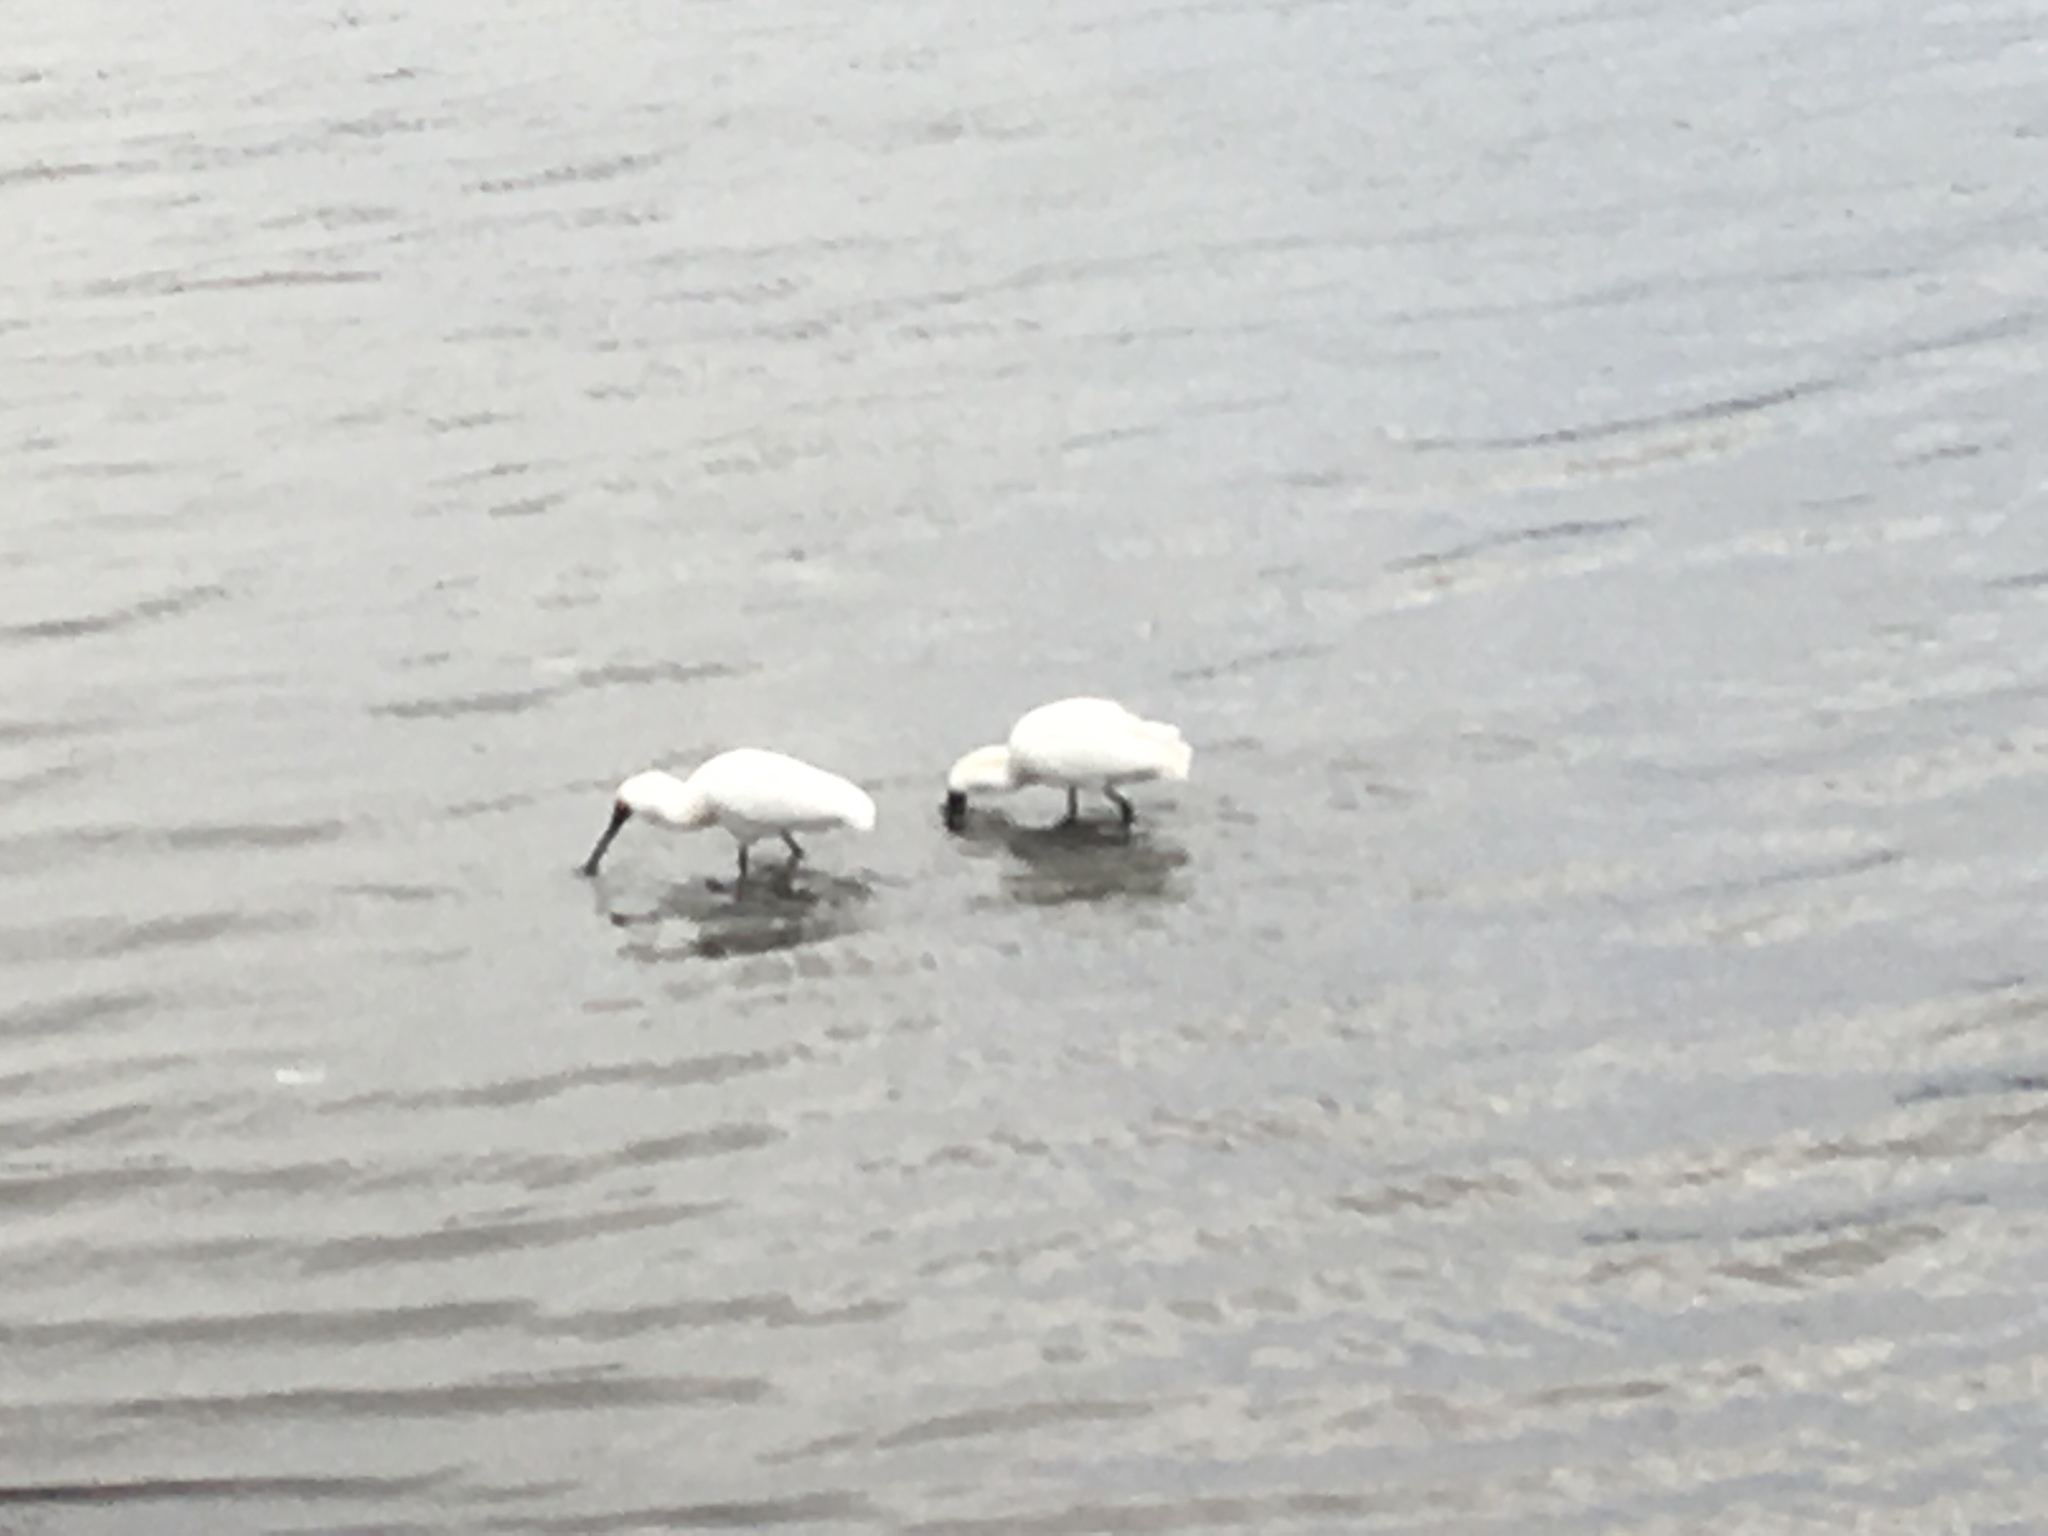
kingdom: Animalia
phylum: Chordata
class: Aves
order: Pelecaniformes
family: Threskiornithidae
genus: Platalea
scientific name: Platalea regia
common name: Royal spoonbill
